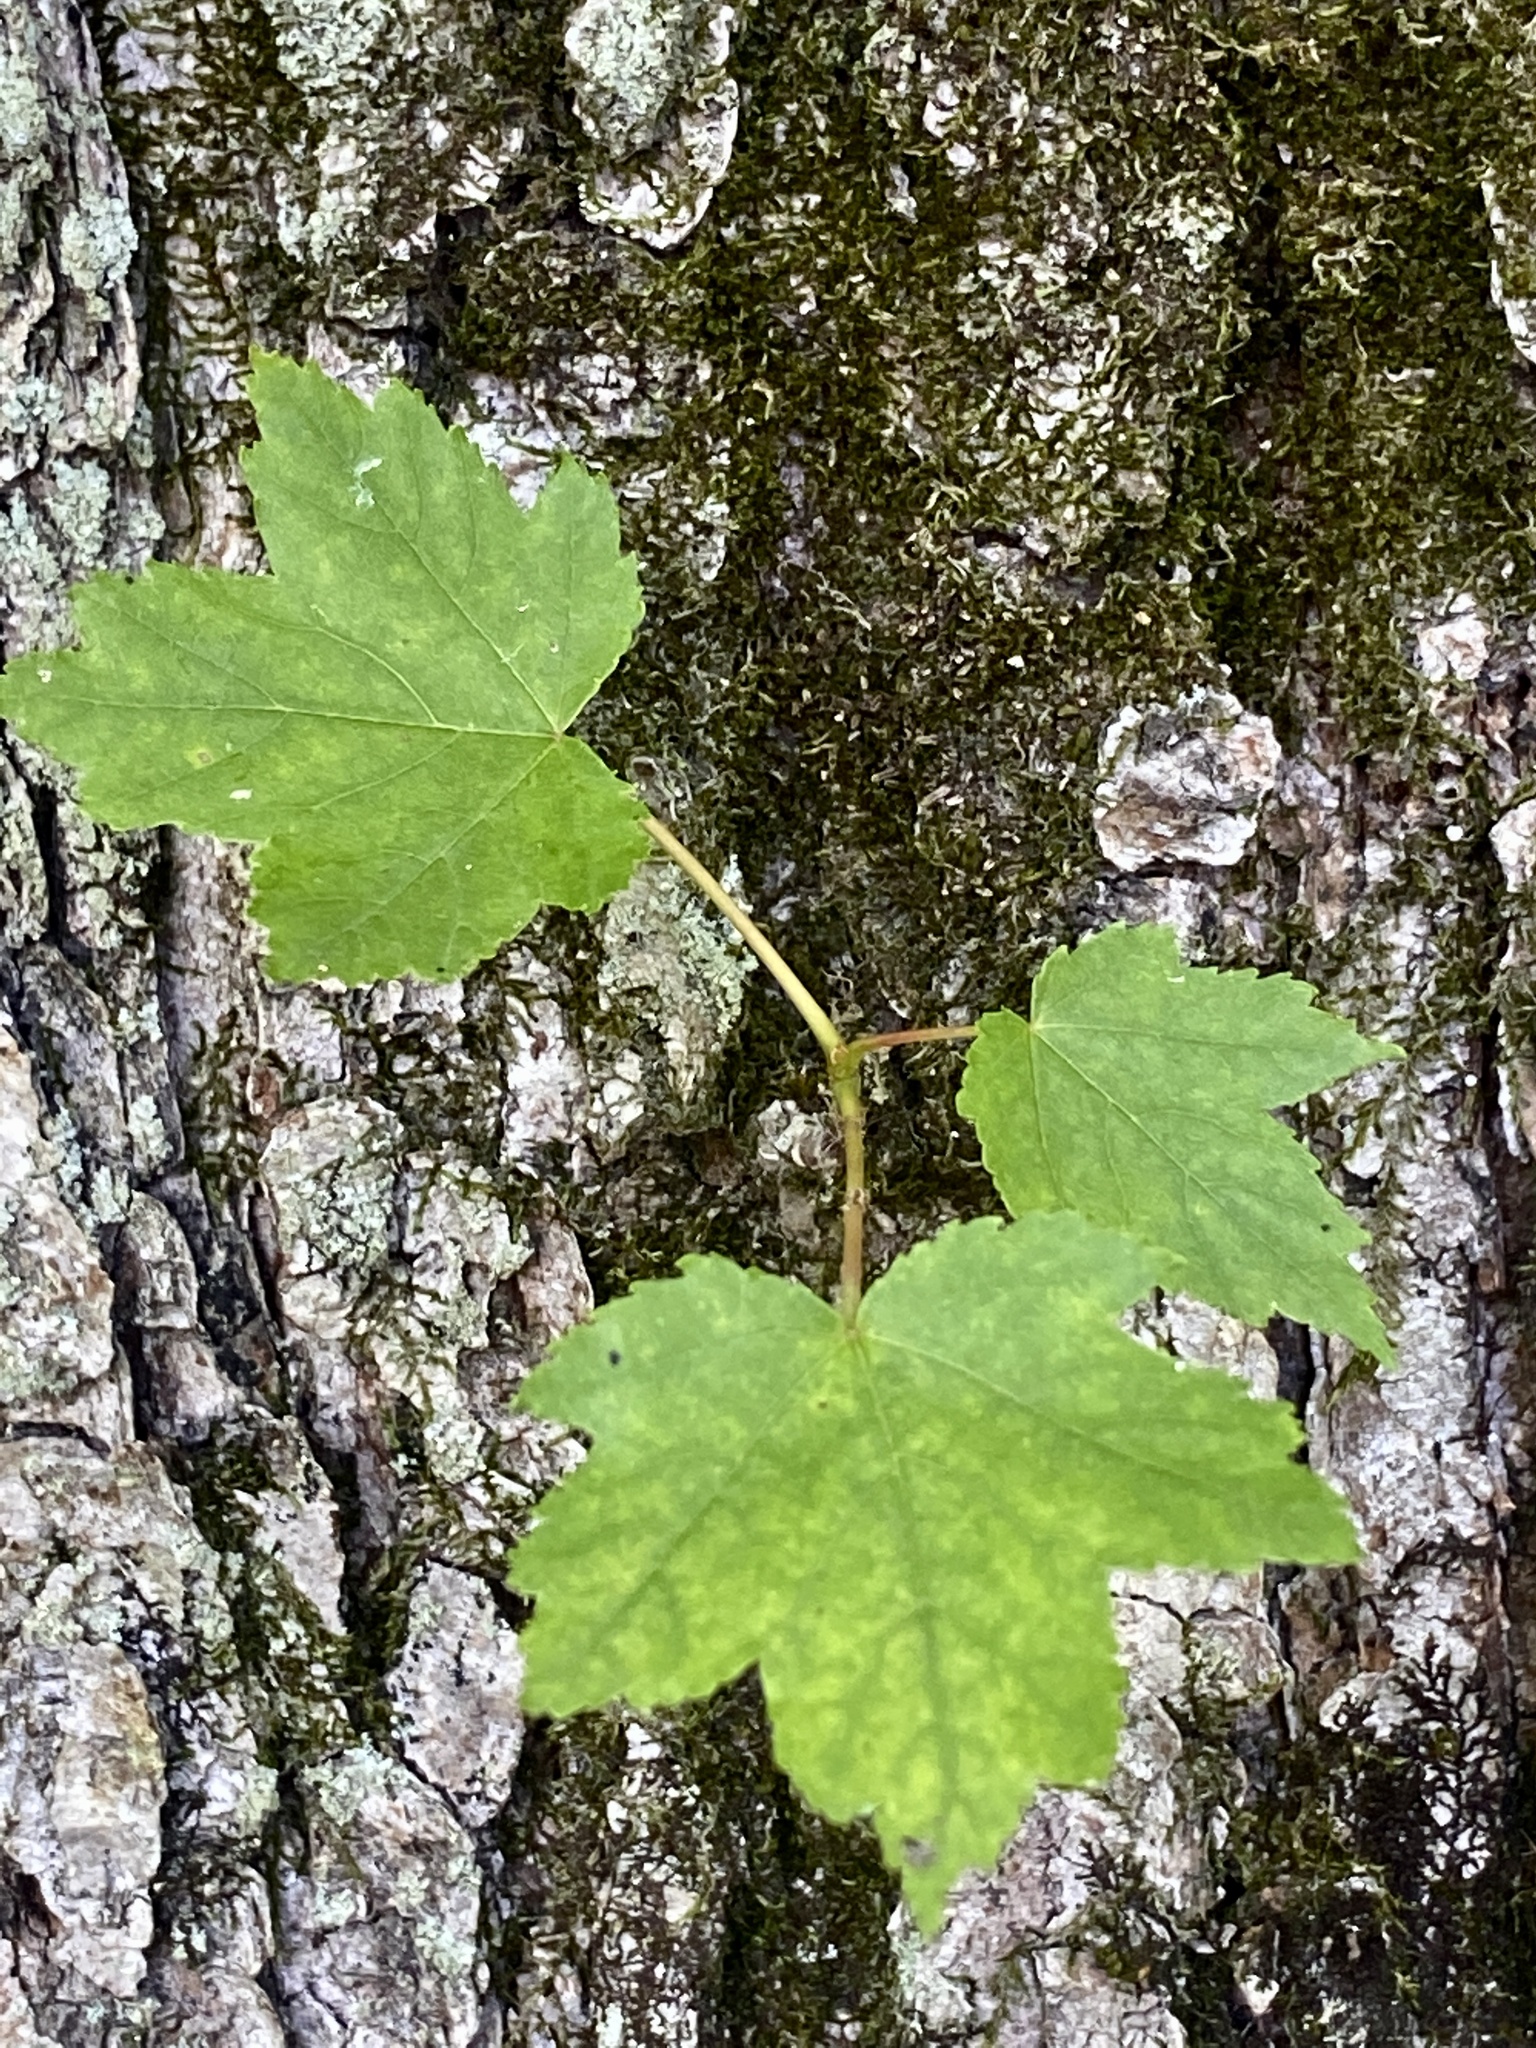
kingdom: Plantae
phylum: Tracheophyta
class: Magnoliopsida
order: Sapindales
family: Sapindaceae
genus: Acer
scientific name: Acer rubrum
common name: Red maple
